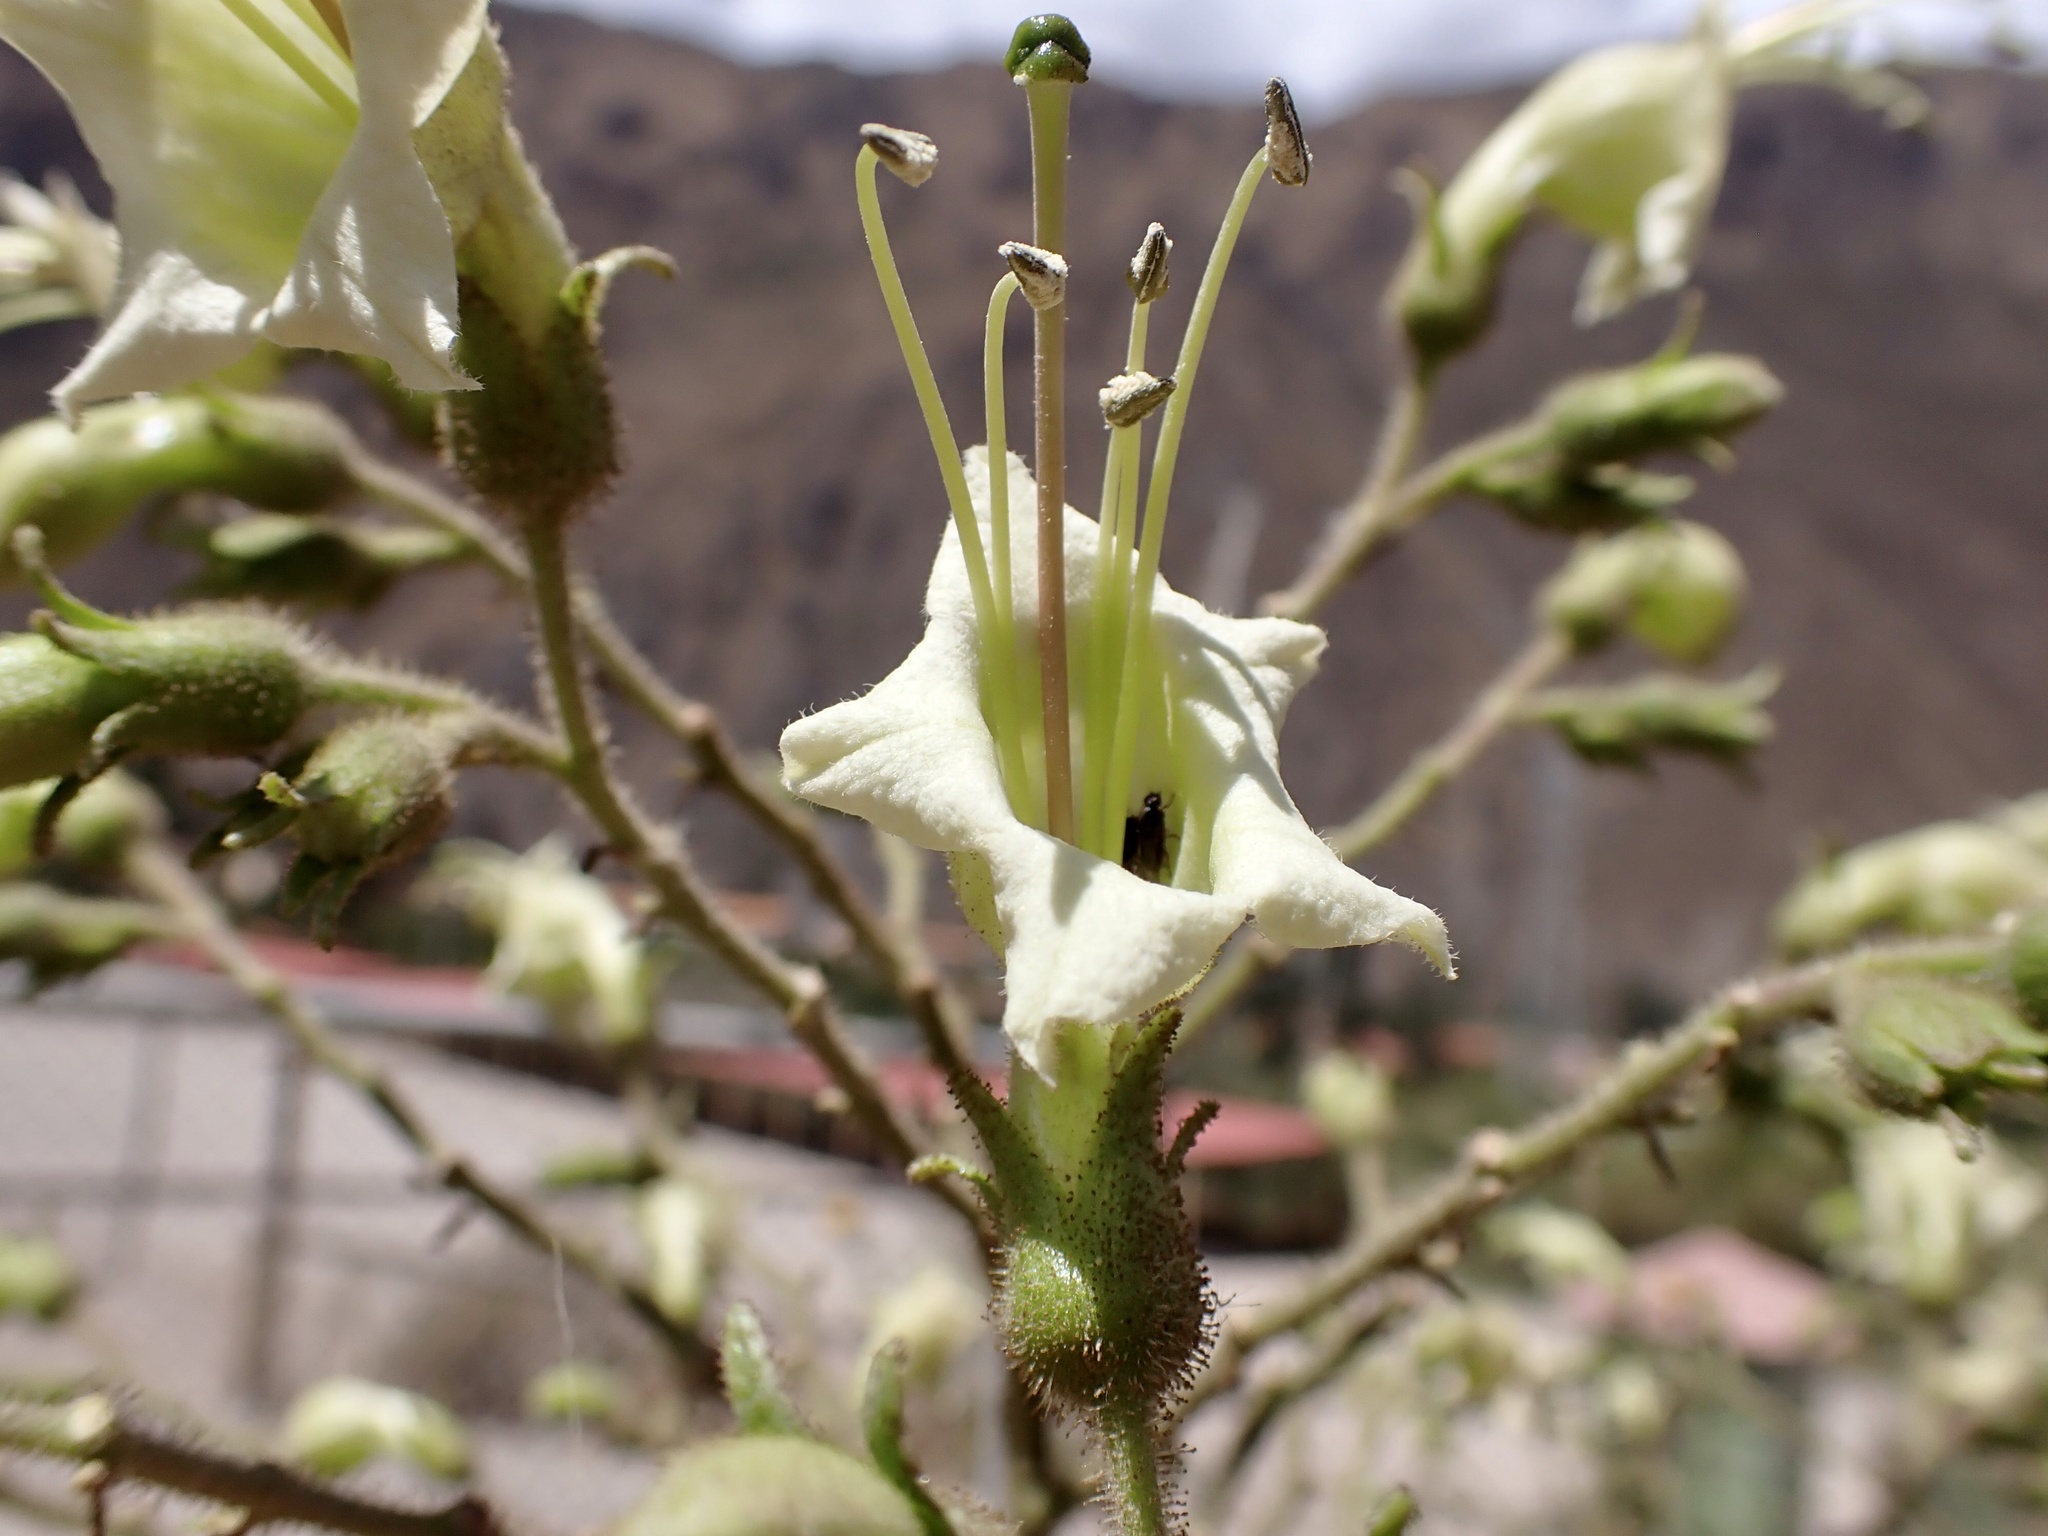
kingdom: Plantae
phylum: Tracheophyta
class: Magnoliopsida
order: Solanales
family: Solanaceae
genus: Nicotiana
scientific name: Nicotiana tomentosa
